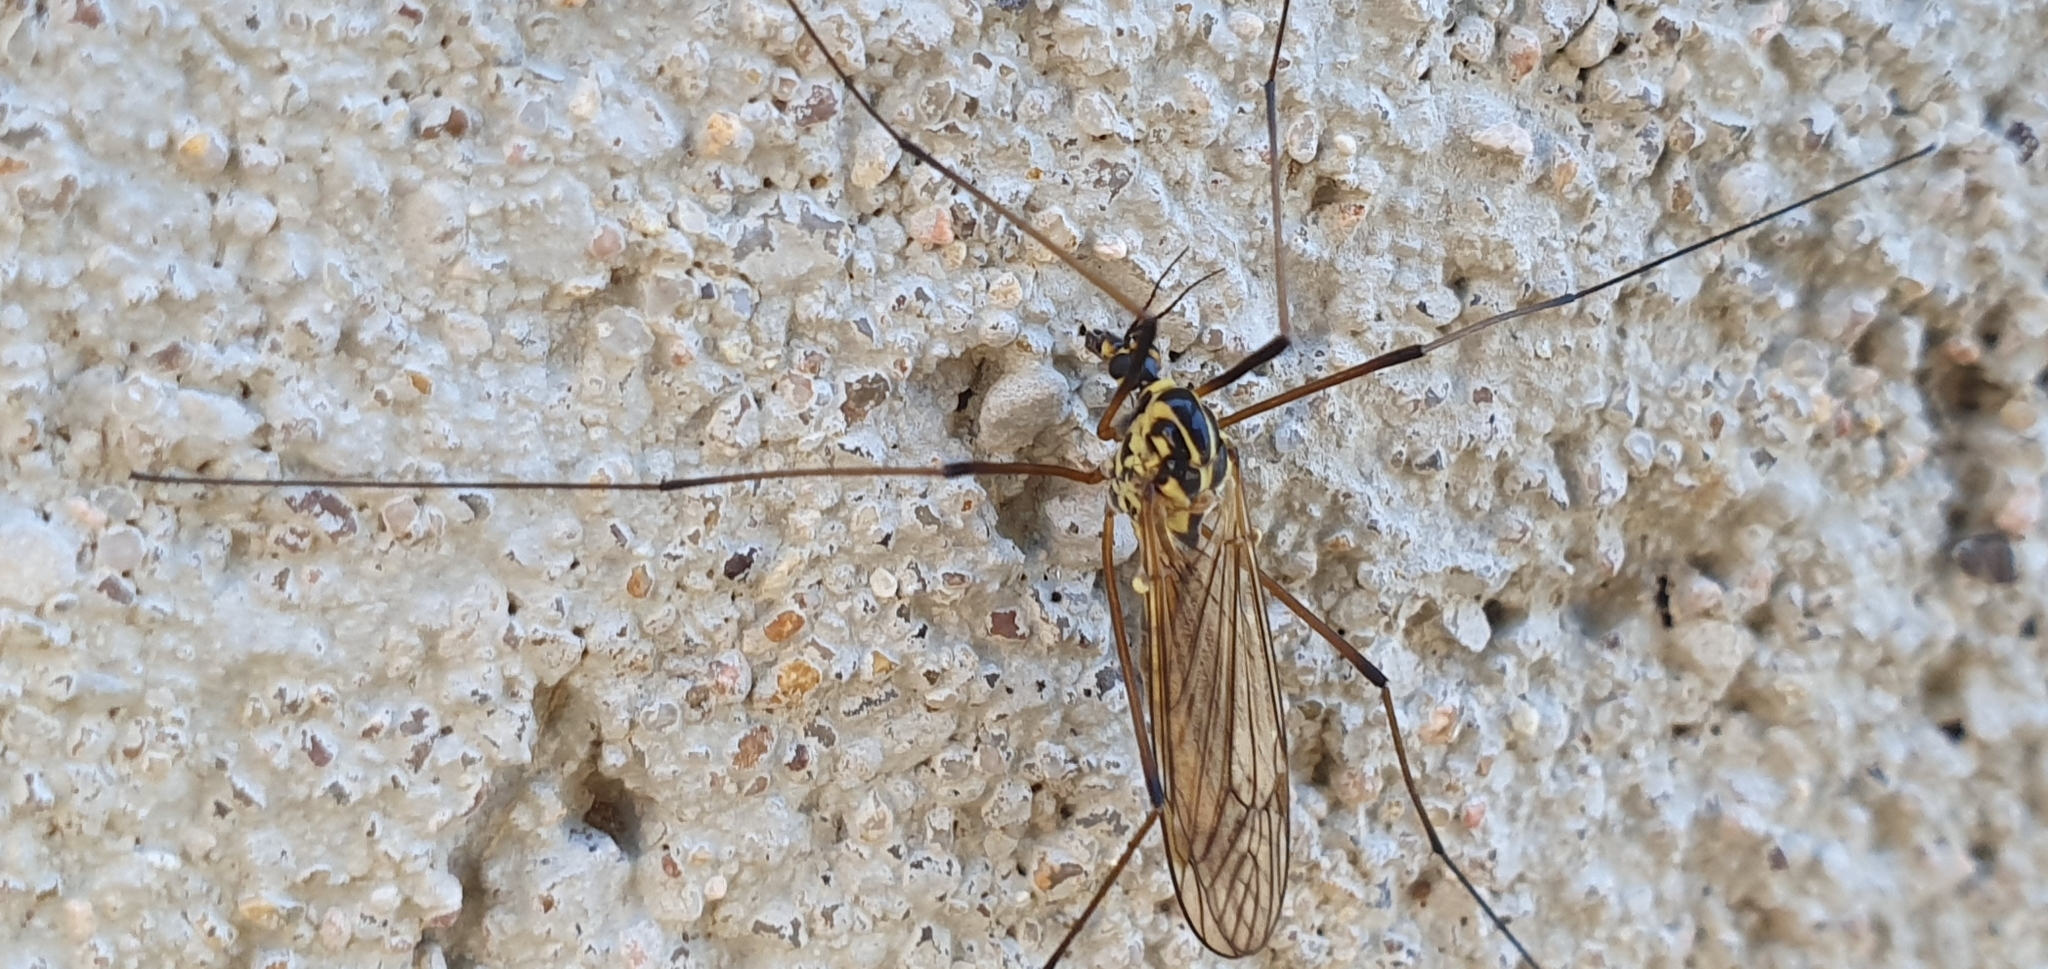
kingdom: Animalia
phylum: Arthropoda
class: Insecta
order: Diptera
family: Tipulidae
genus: Nephrotoma
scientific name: Nephrotoma appendiculata
